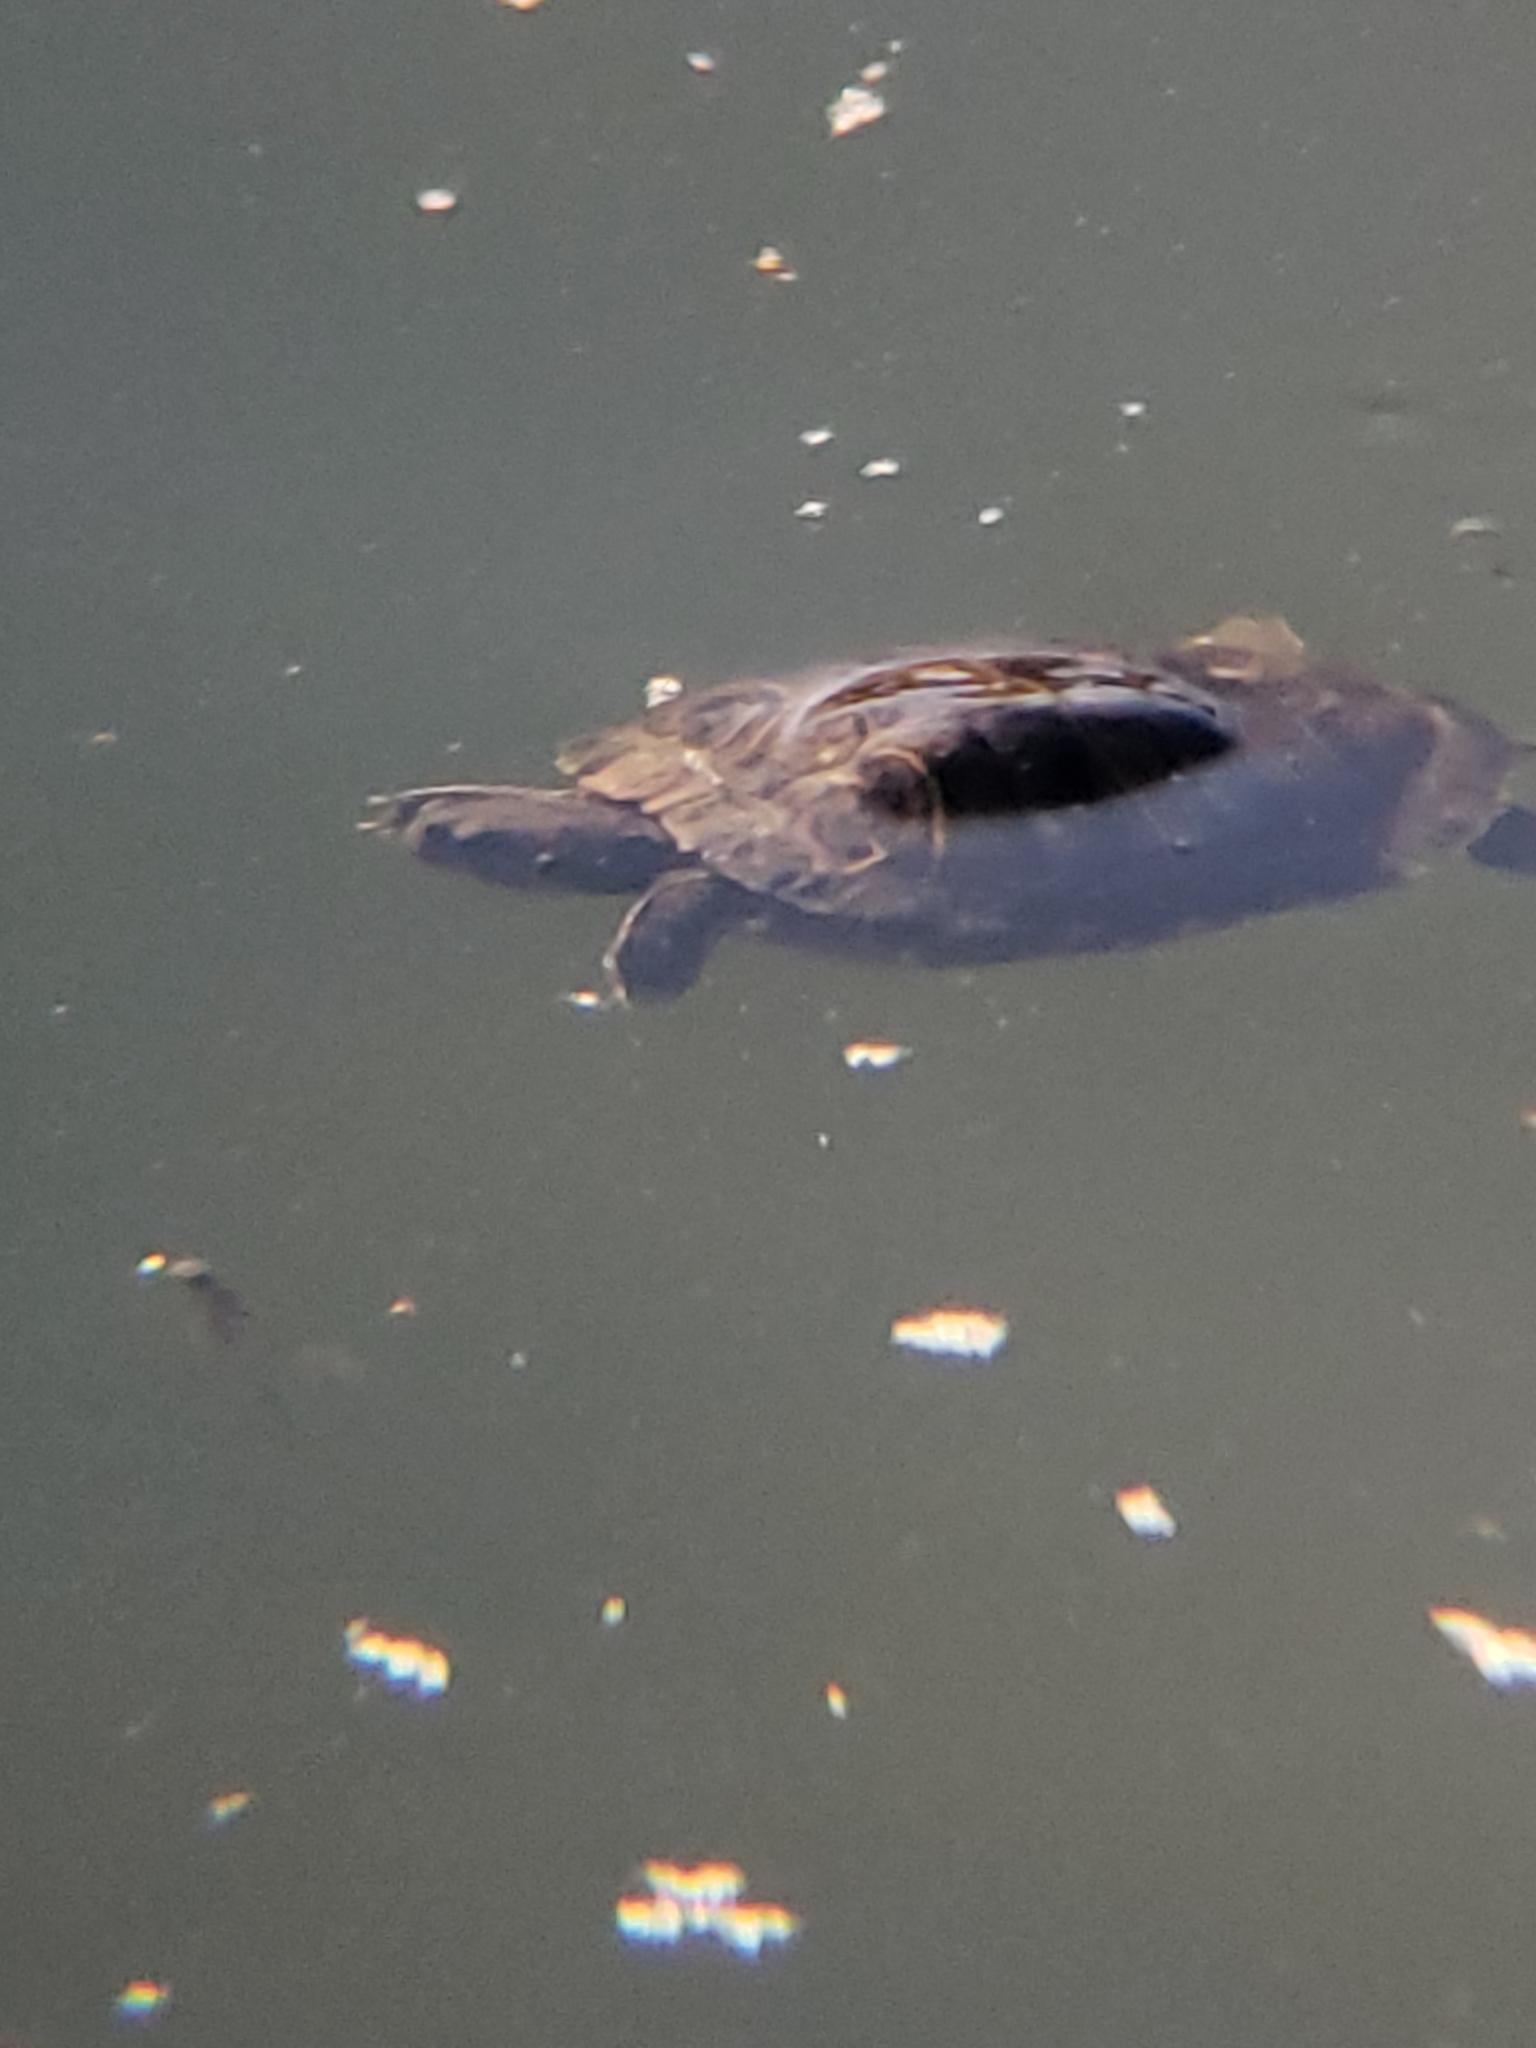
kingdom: Animalia
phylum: Chordata
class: Testudines
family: Emydidae
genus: Trachemys
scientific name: Trachemys scripta
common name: Slider
